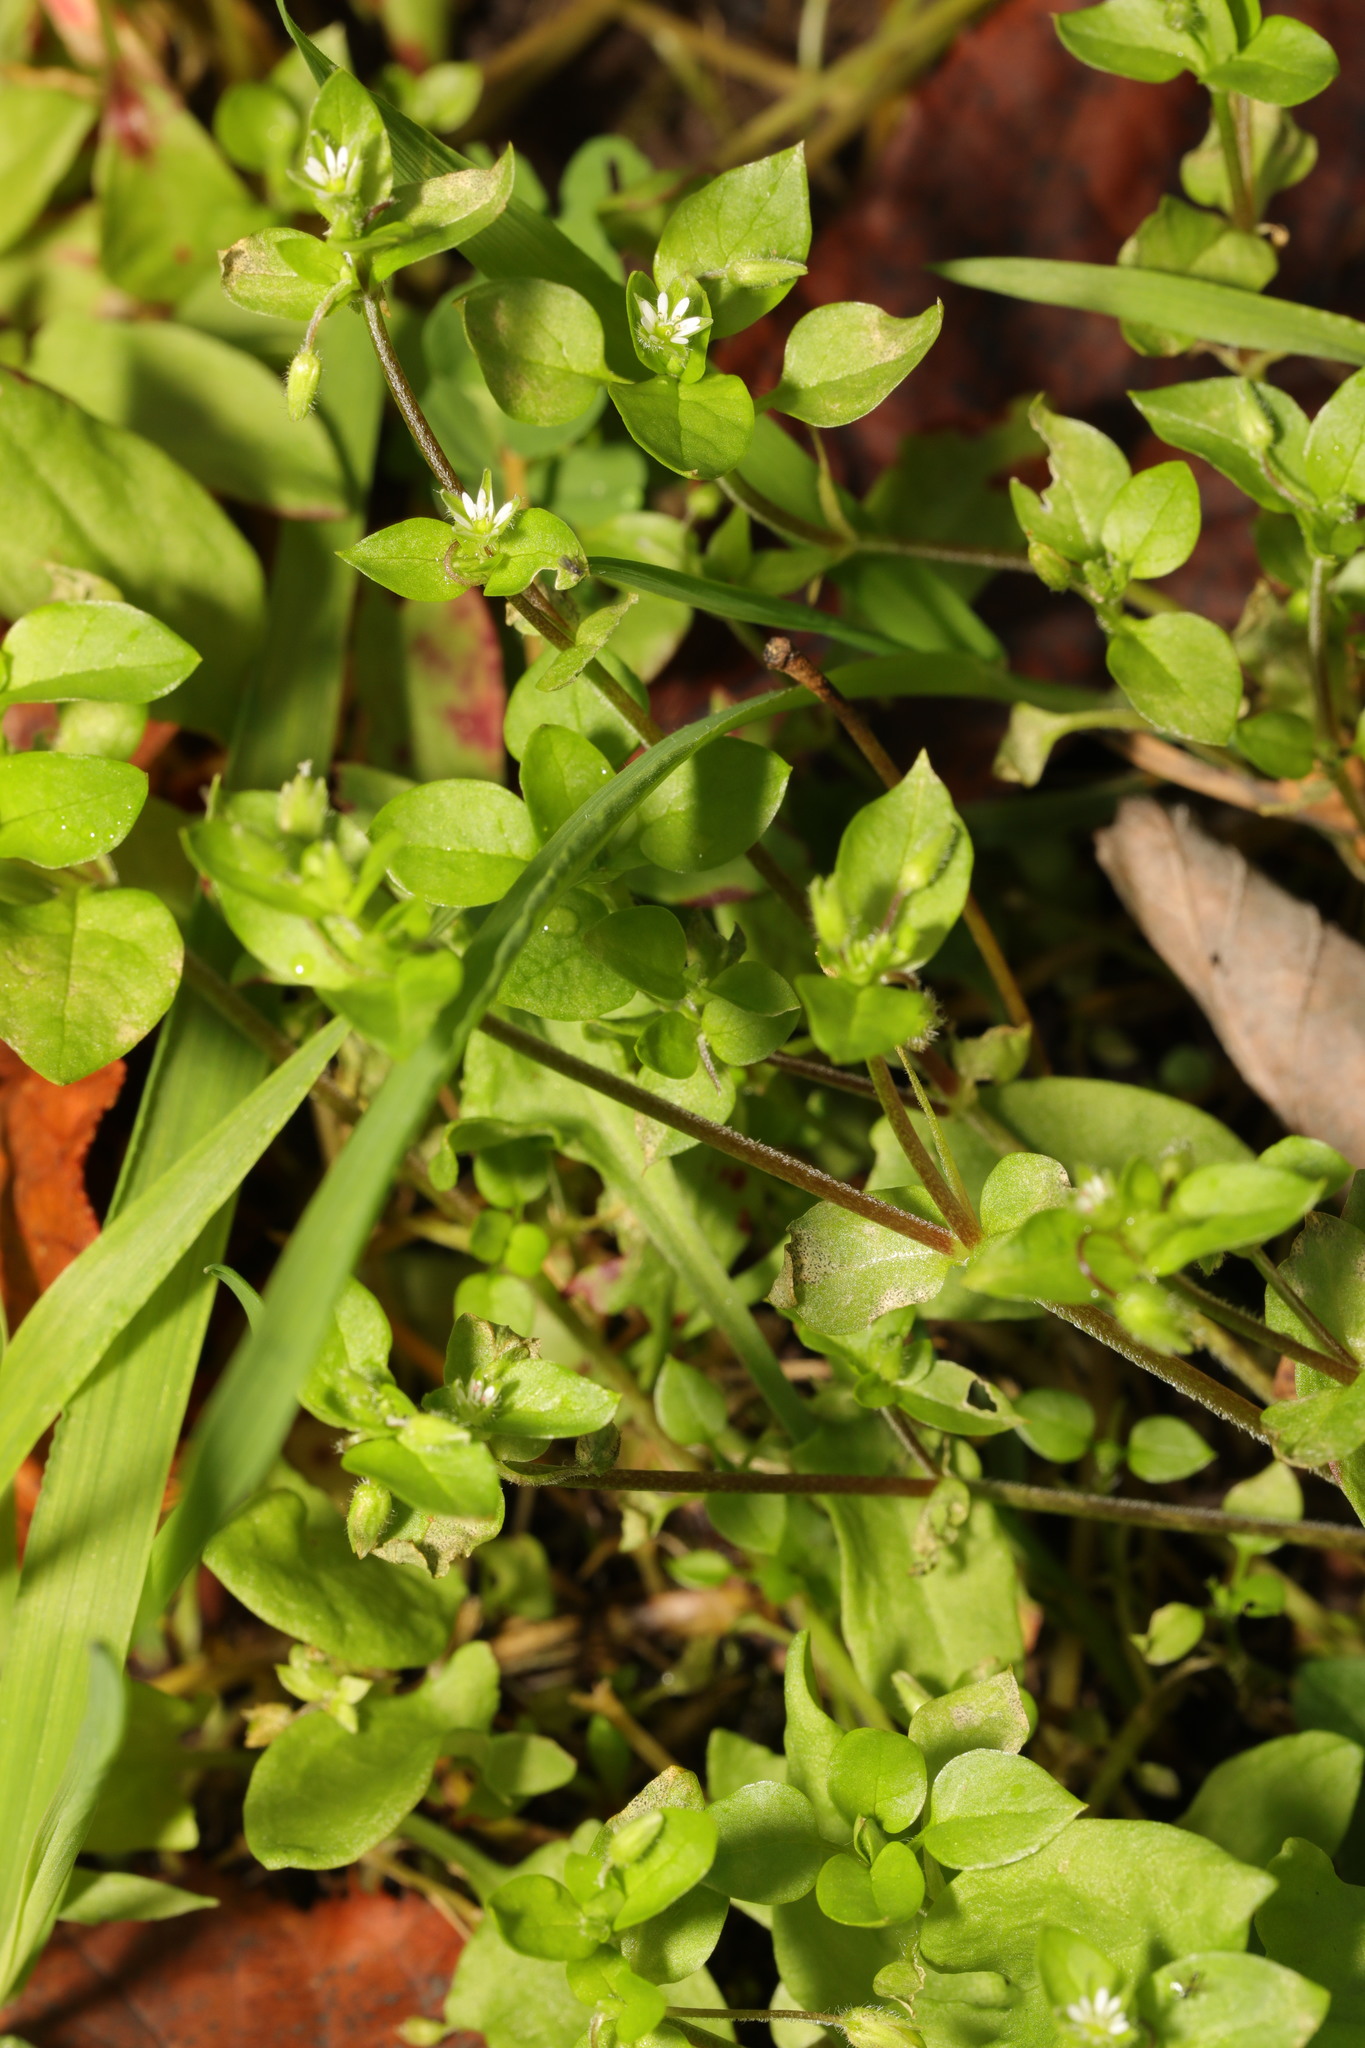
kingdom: Plantae
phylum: Tracheophyta
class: Magnoliopsida
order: Caryophyllales
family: Caryophyllaceae
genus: Stellaria
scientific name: Stellaria media
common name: Common chickweed
